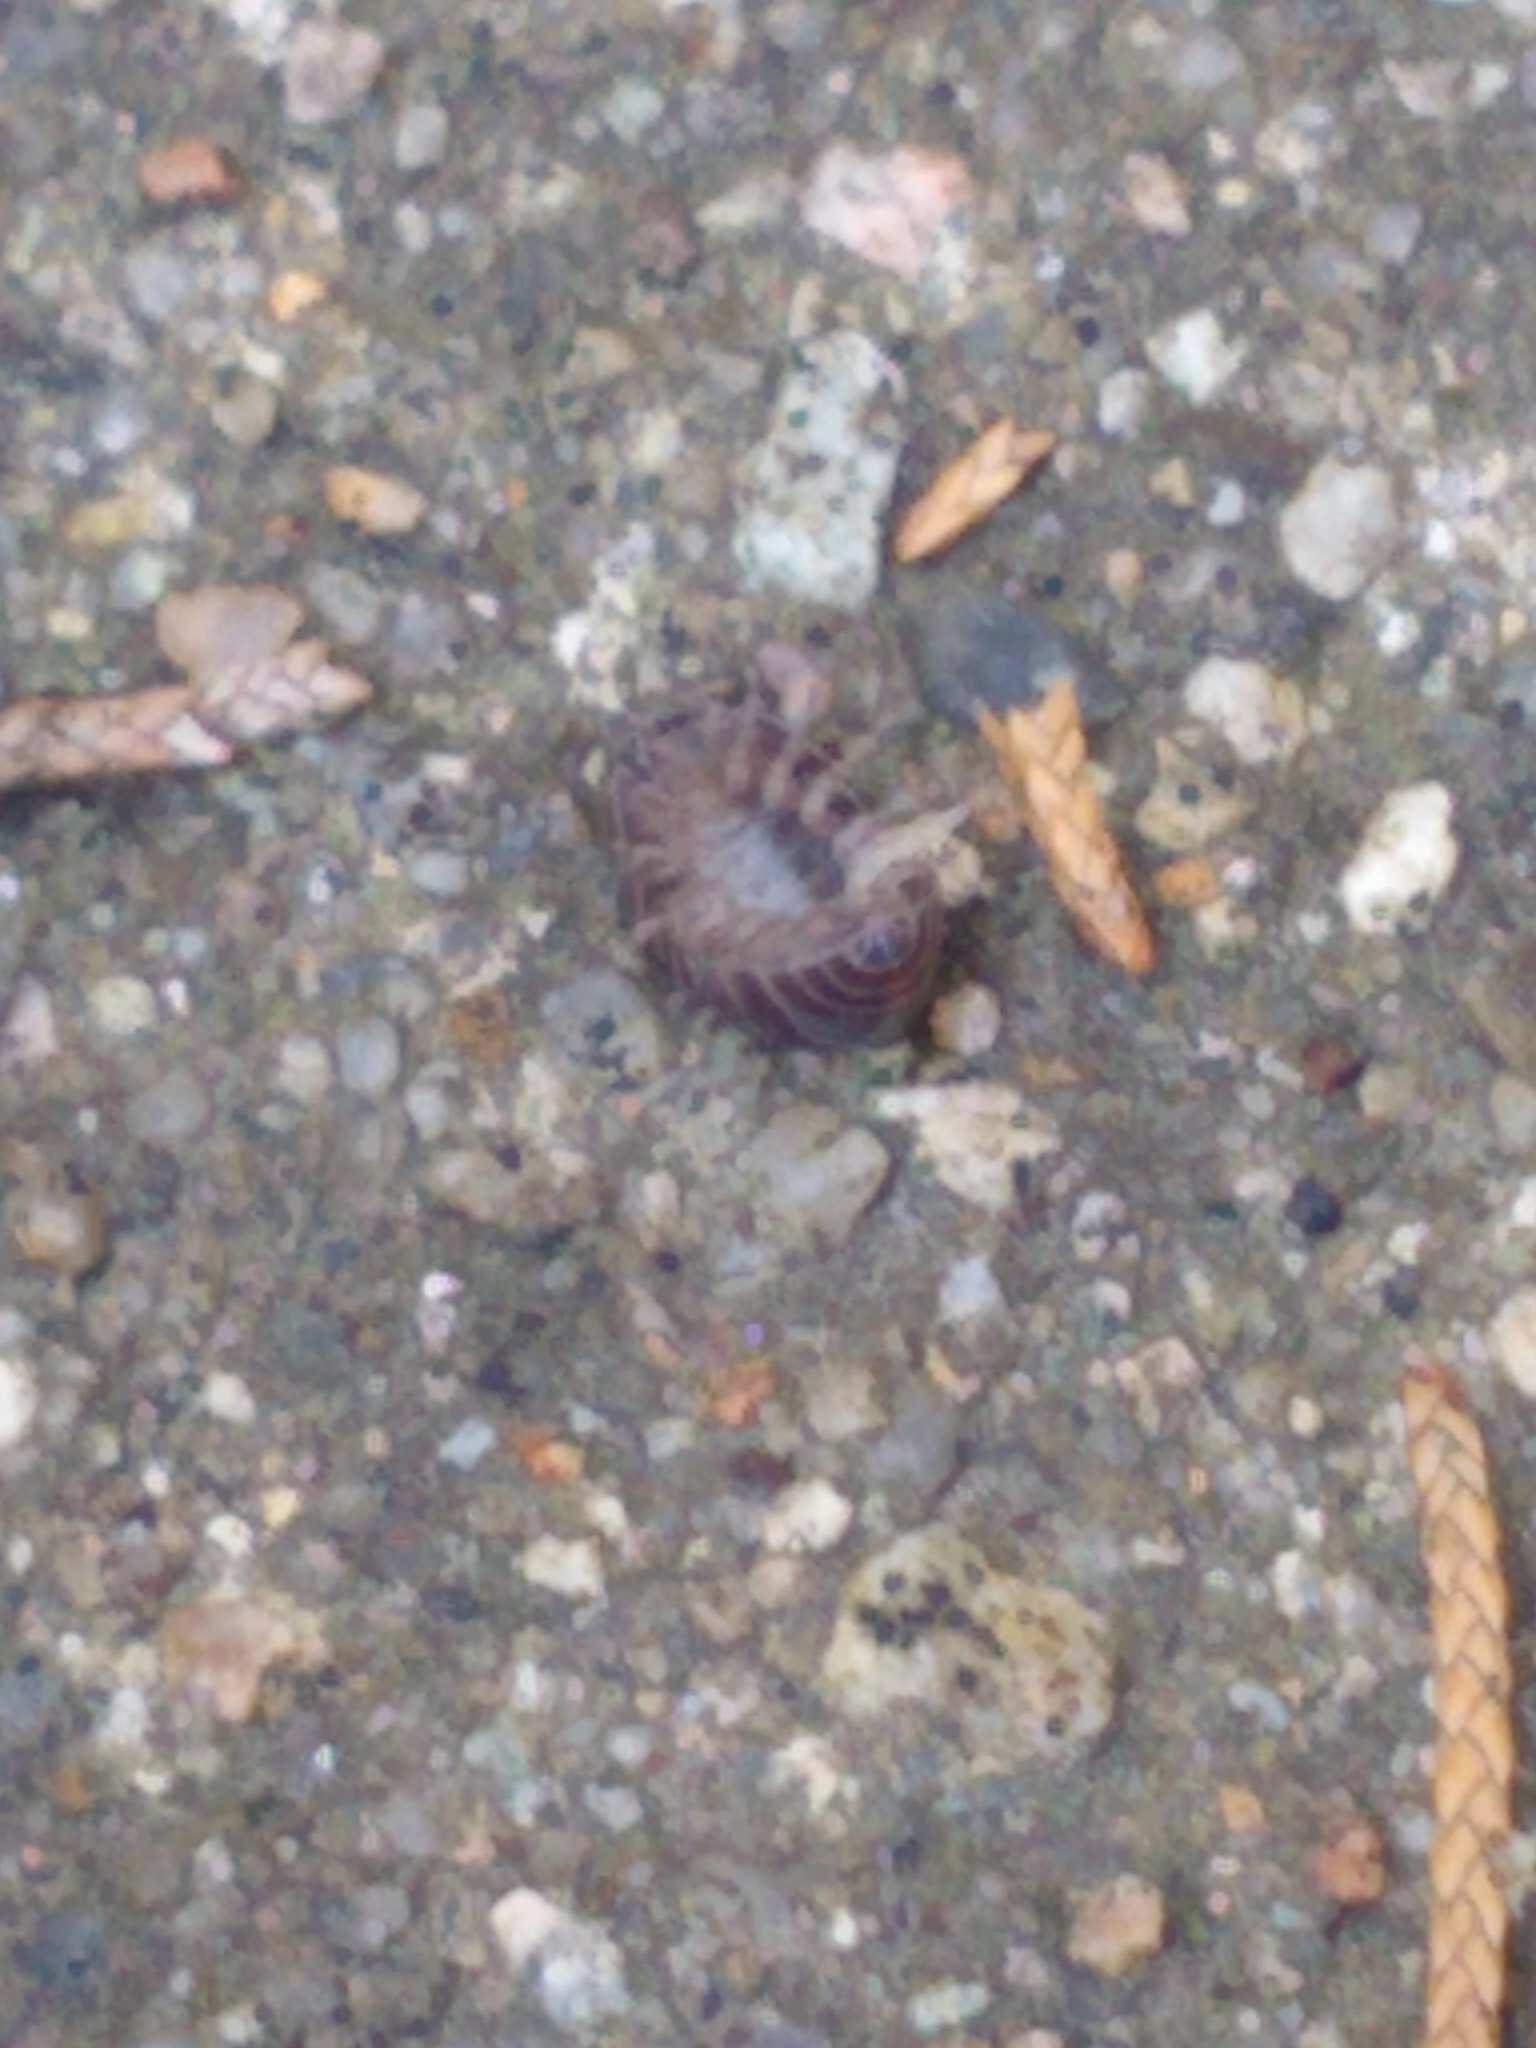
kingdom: Animalia
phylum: Arthropoda
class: Malacostraca
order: Isopoda
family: Armadillidiidae
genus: Armadillidium
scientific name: Armadillidium vulgare
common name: Common pill woodlouse
